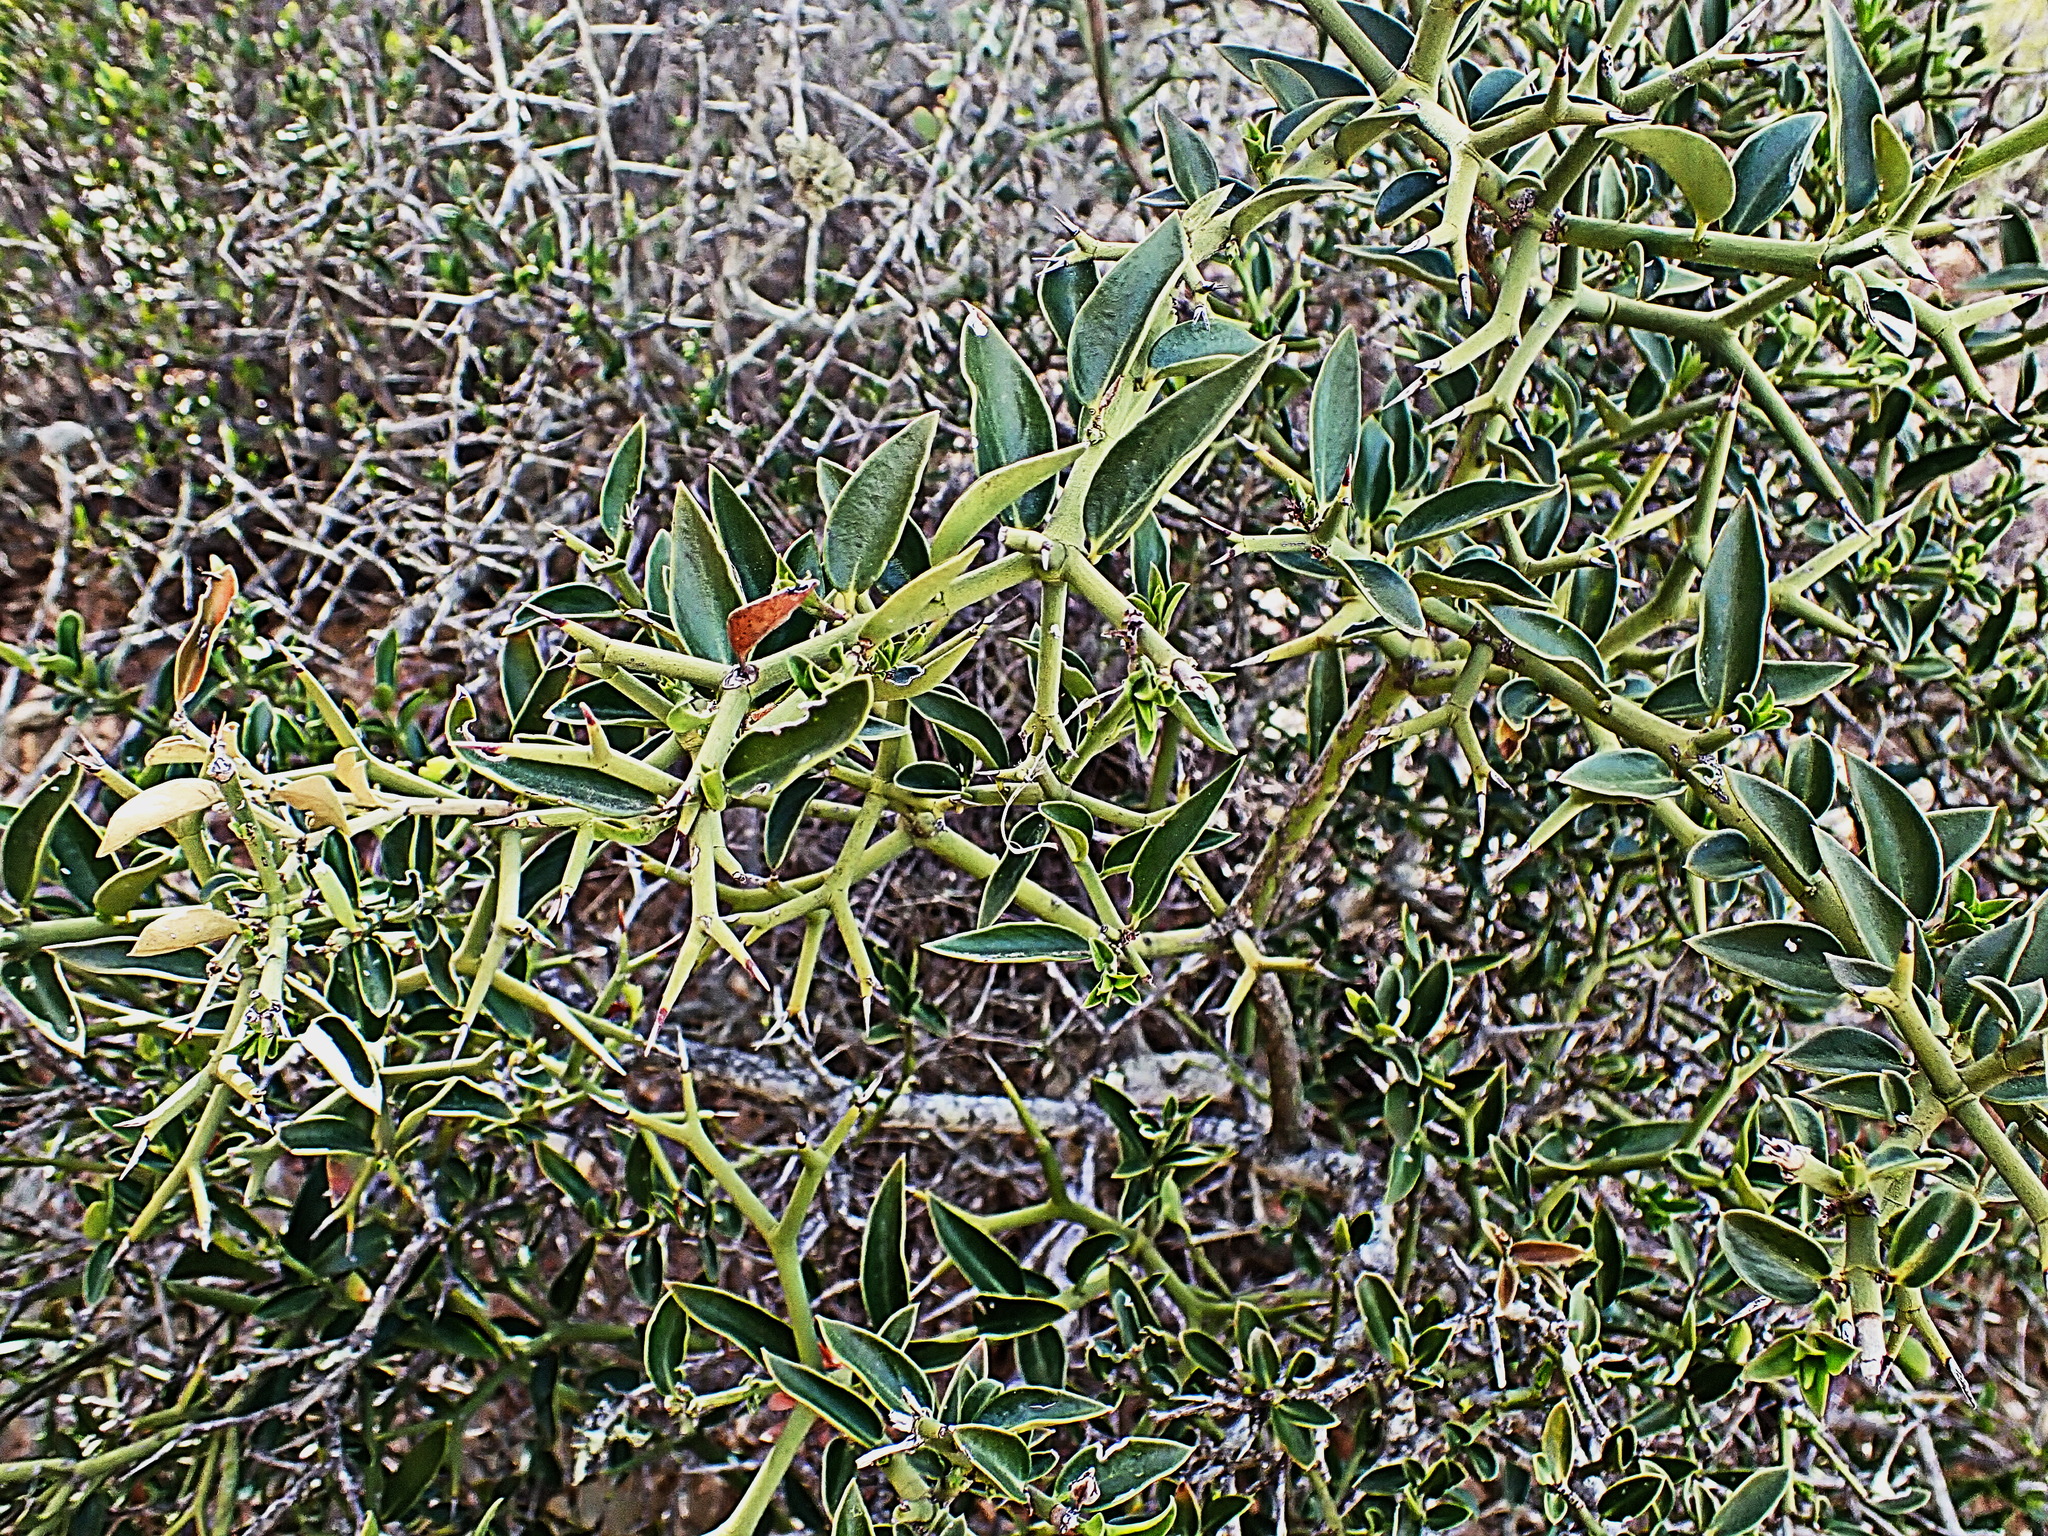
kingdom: Plantae
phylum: Tracheophyta
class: Magnoliopsida
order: Gentianales
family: Apocynaceae
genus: Carissa
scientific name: Carissa haematocarpa
